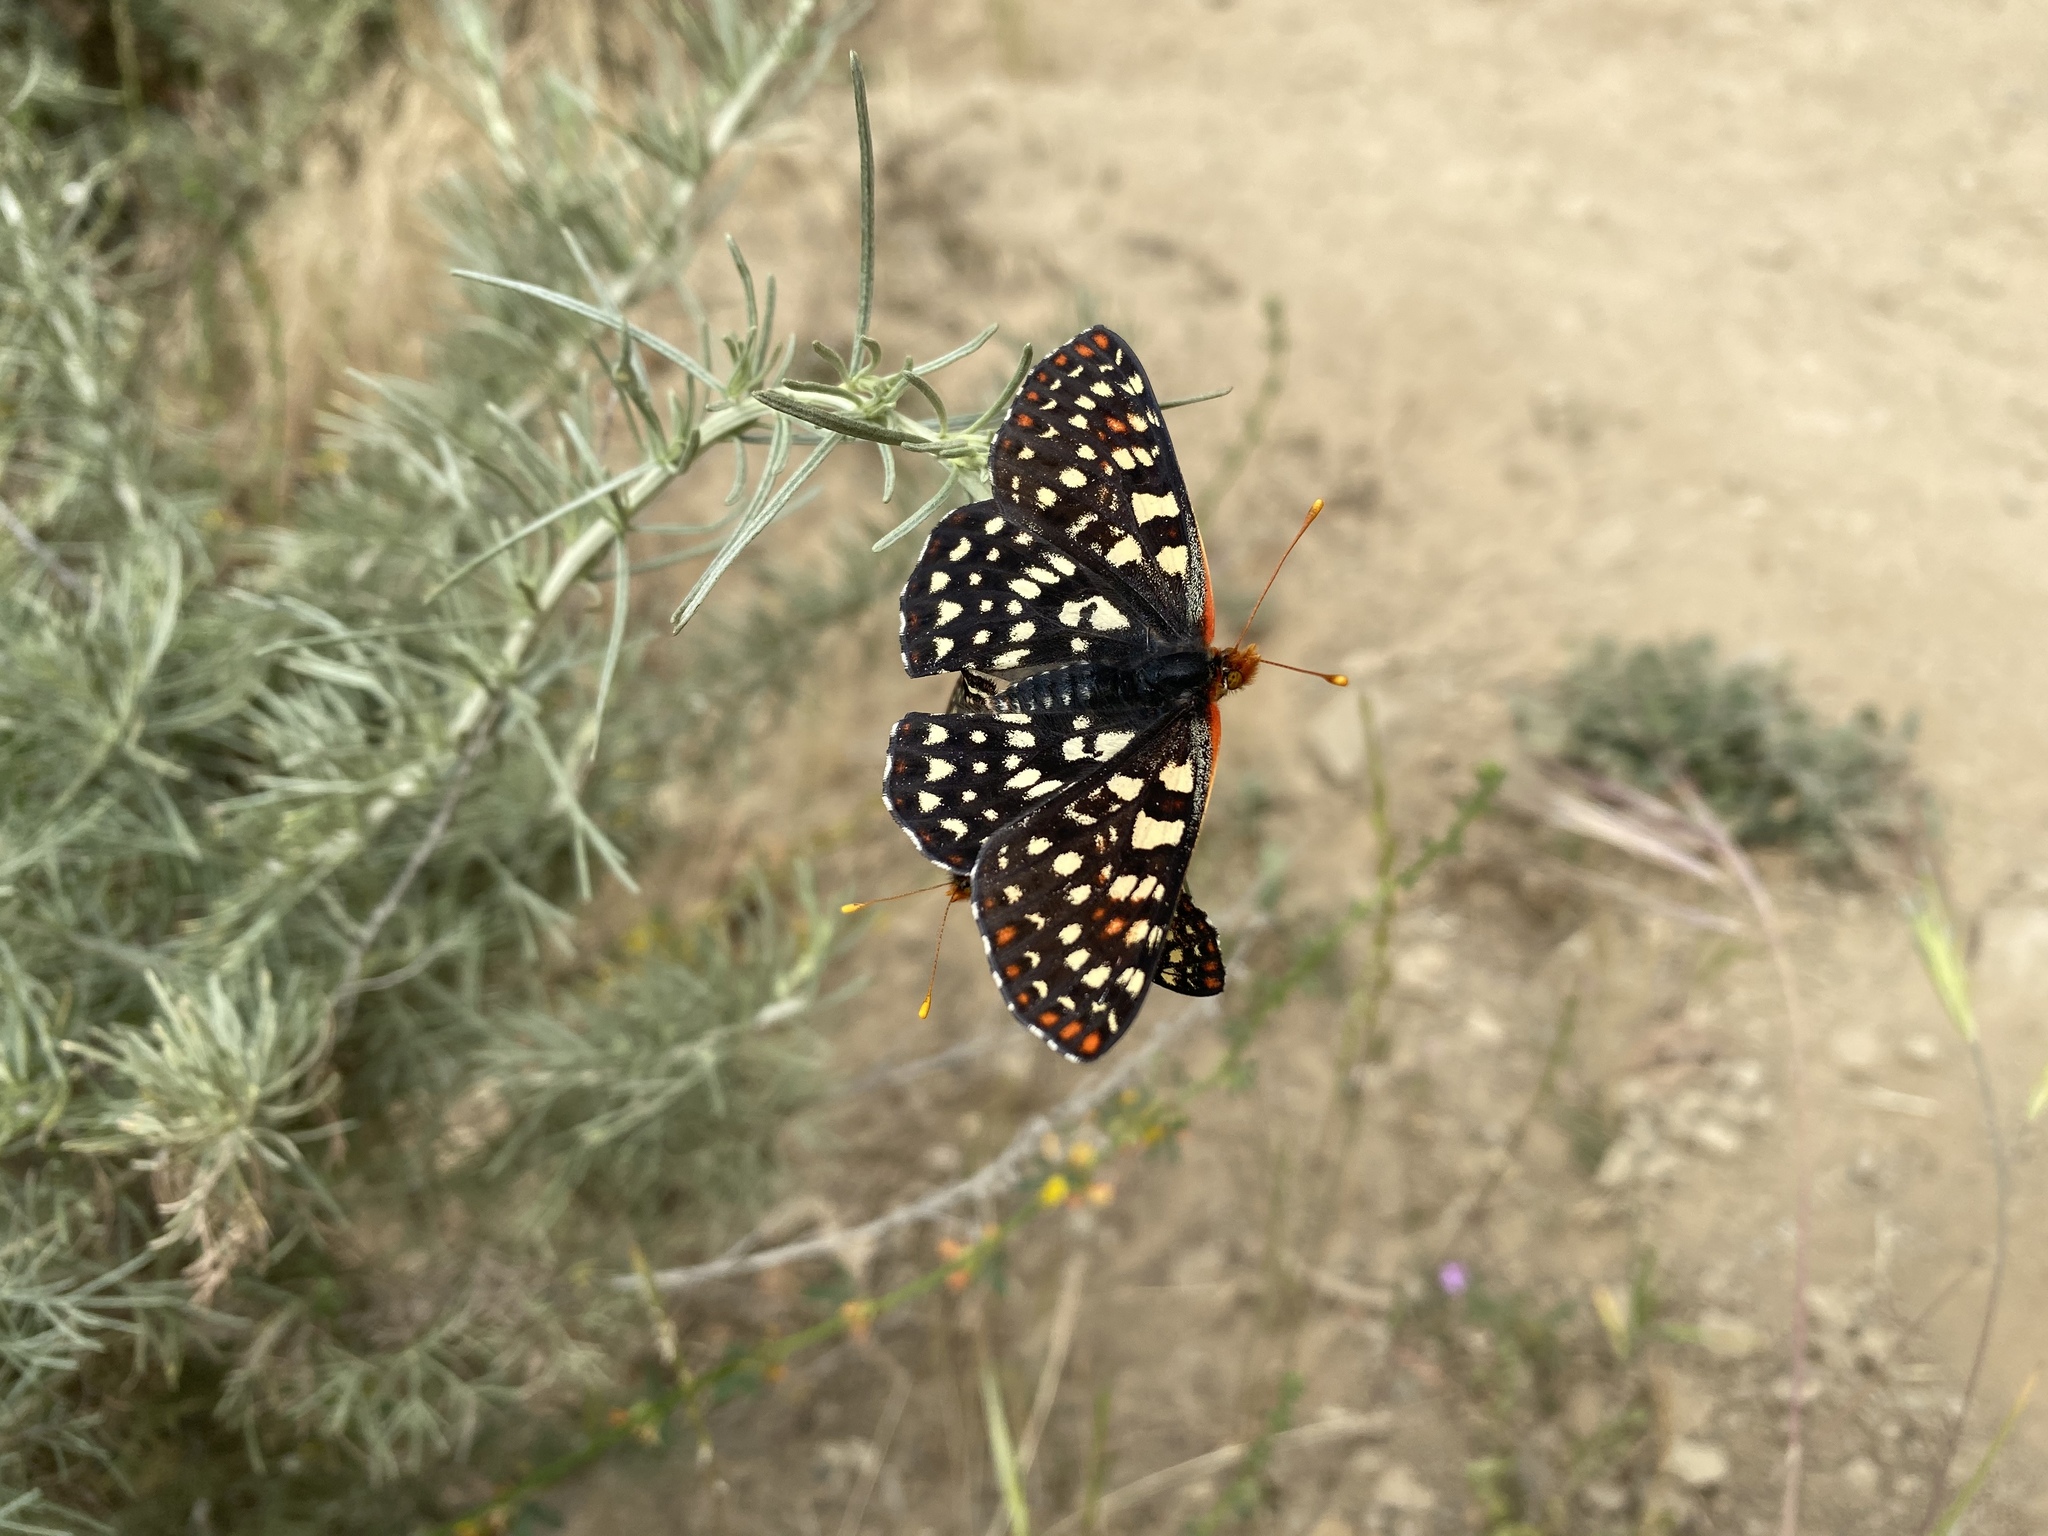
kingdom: Animalia
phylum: Arthropoda
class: Insecta
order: Lepidoptera
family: Nymphalidae
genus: Occidryas
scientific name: Occidryas chalcedona
